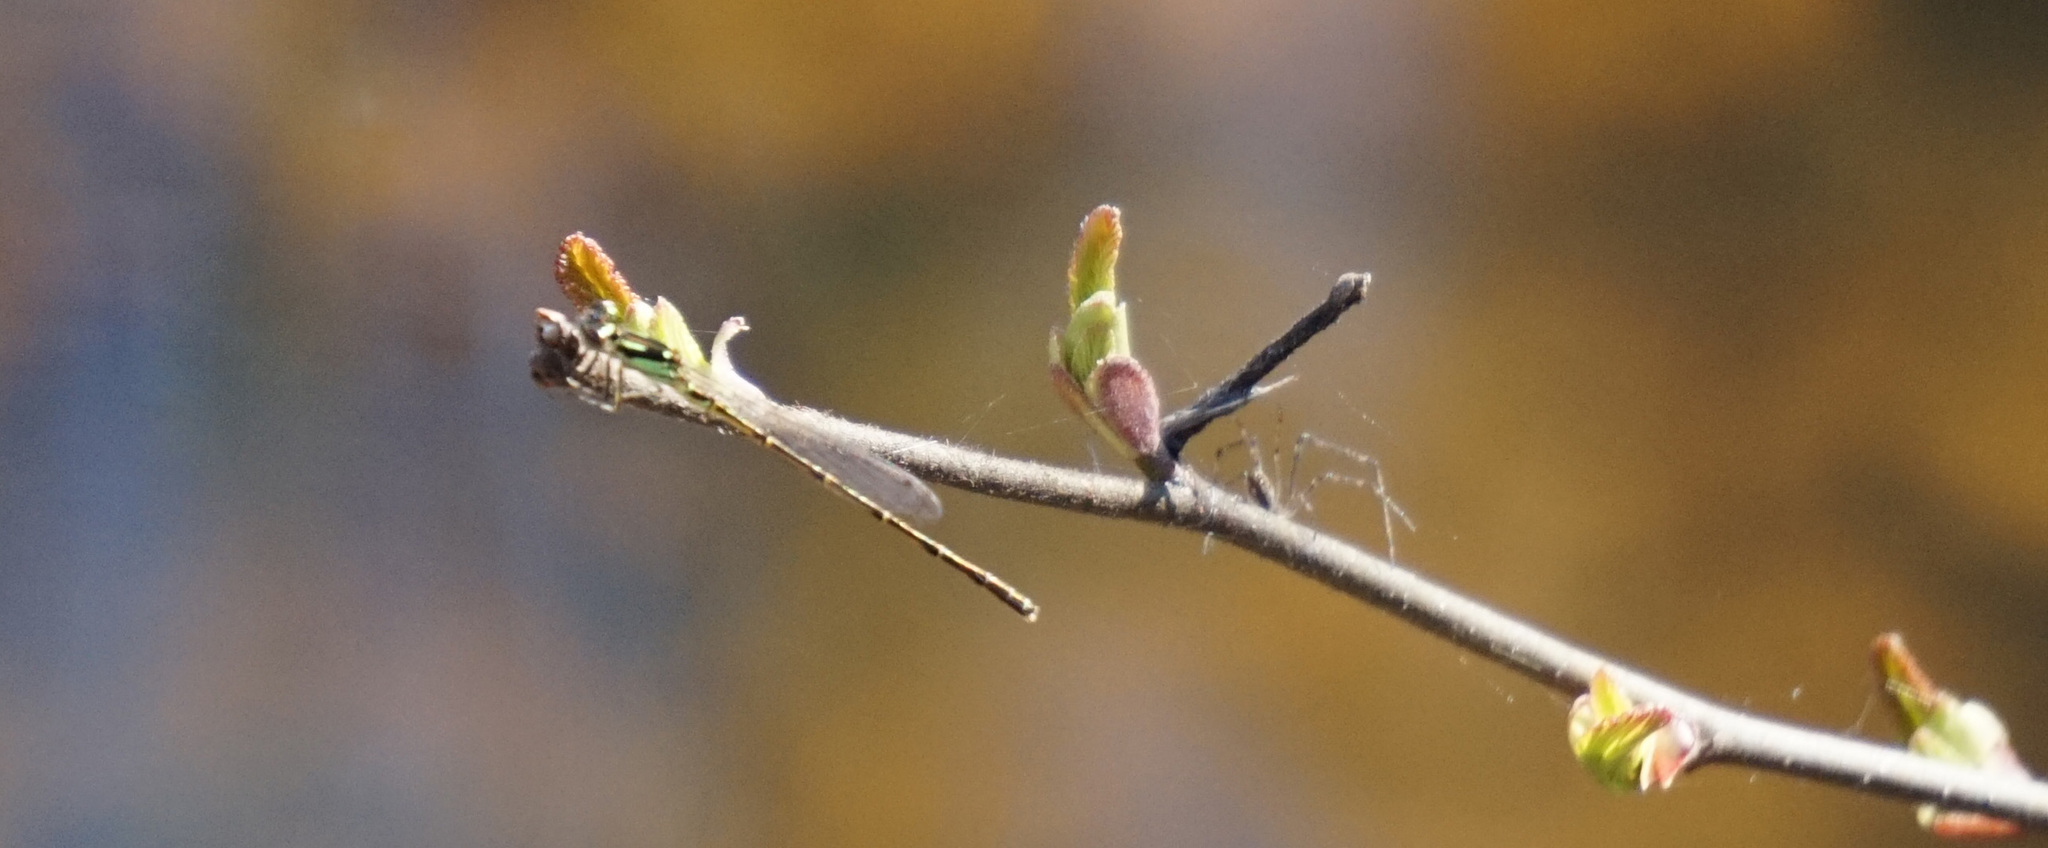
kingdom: Animalia
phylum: Arthropoda
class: Insecta
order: Odonata
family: Coenagrionidae
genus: Ischnura
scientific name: Ischnura posita
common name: Fragile forktail
